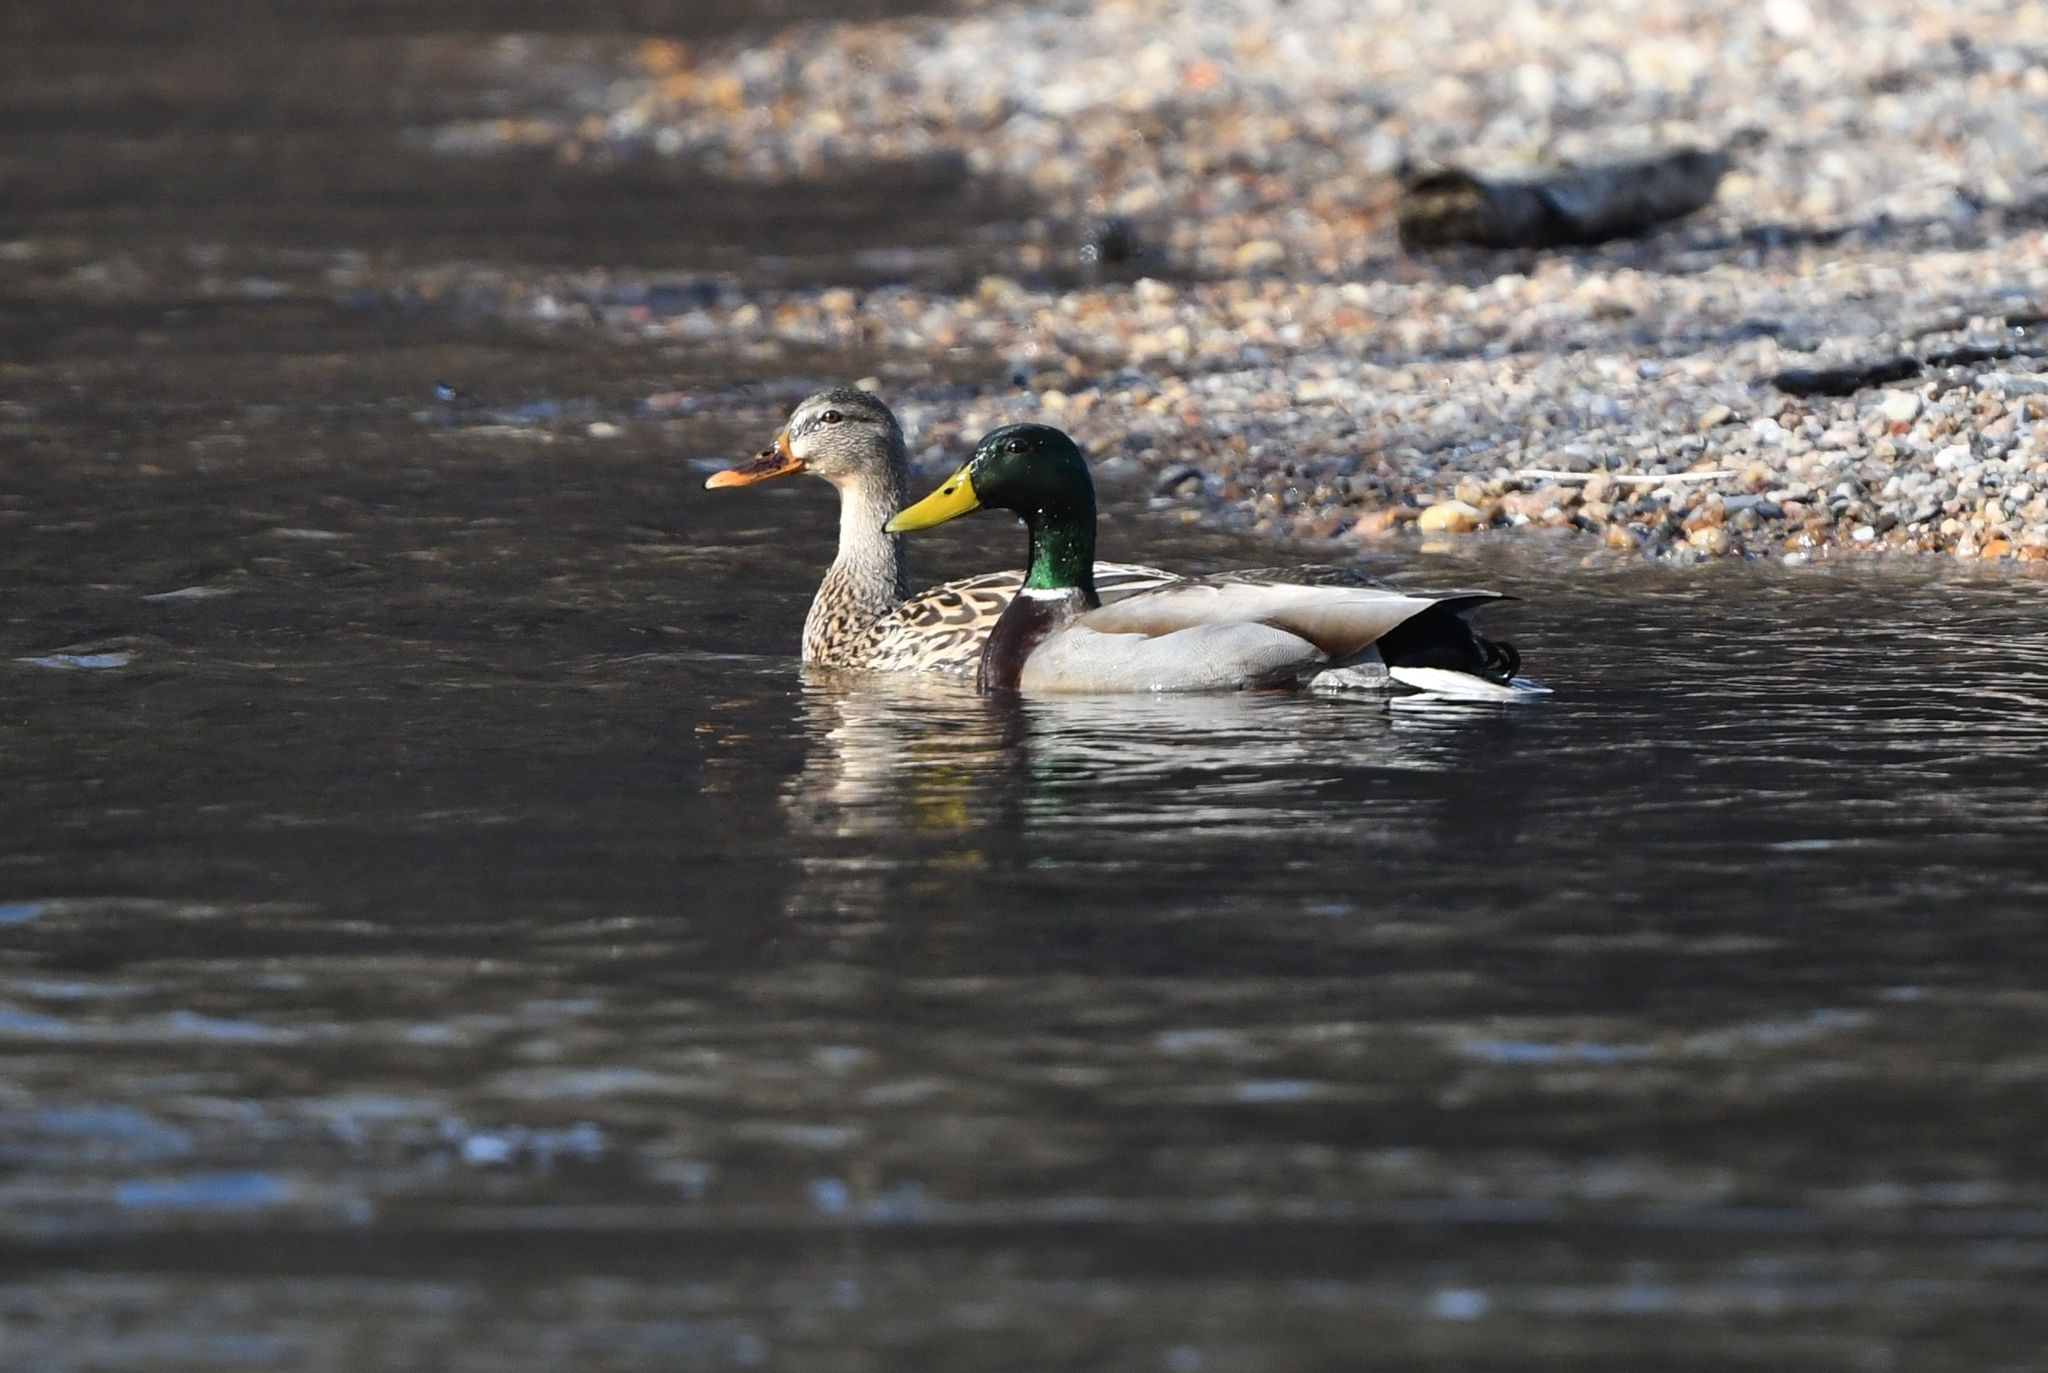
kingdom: Animalia
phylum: Chordata
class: Aves
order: Anseriformes
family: Anatidae
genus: Anas
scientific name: Anas platyrhynchos
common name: Mallard
